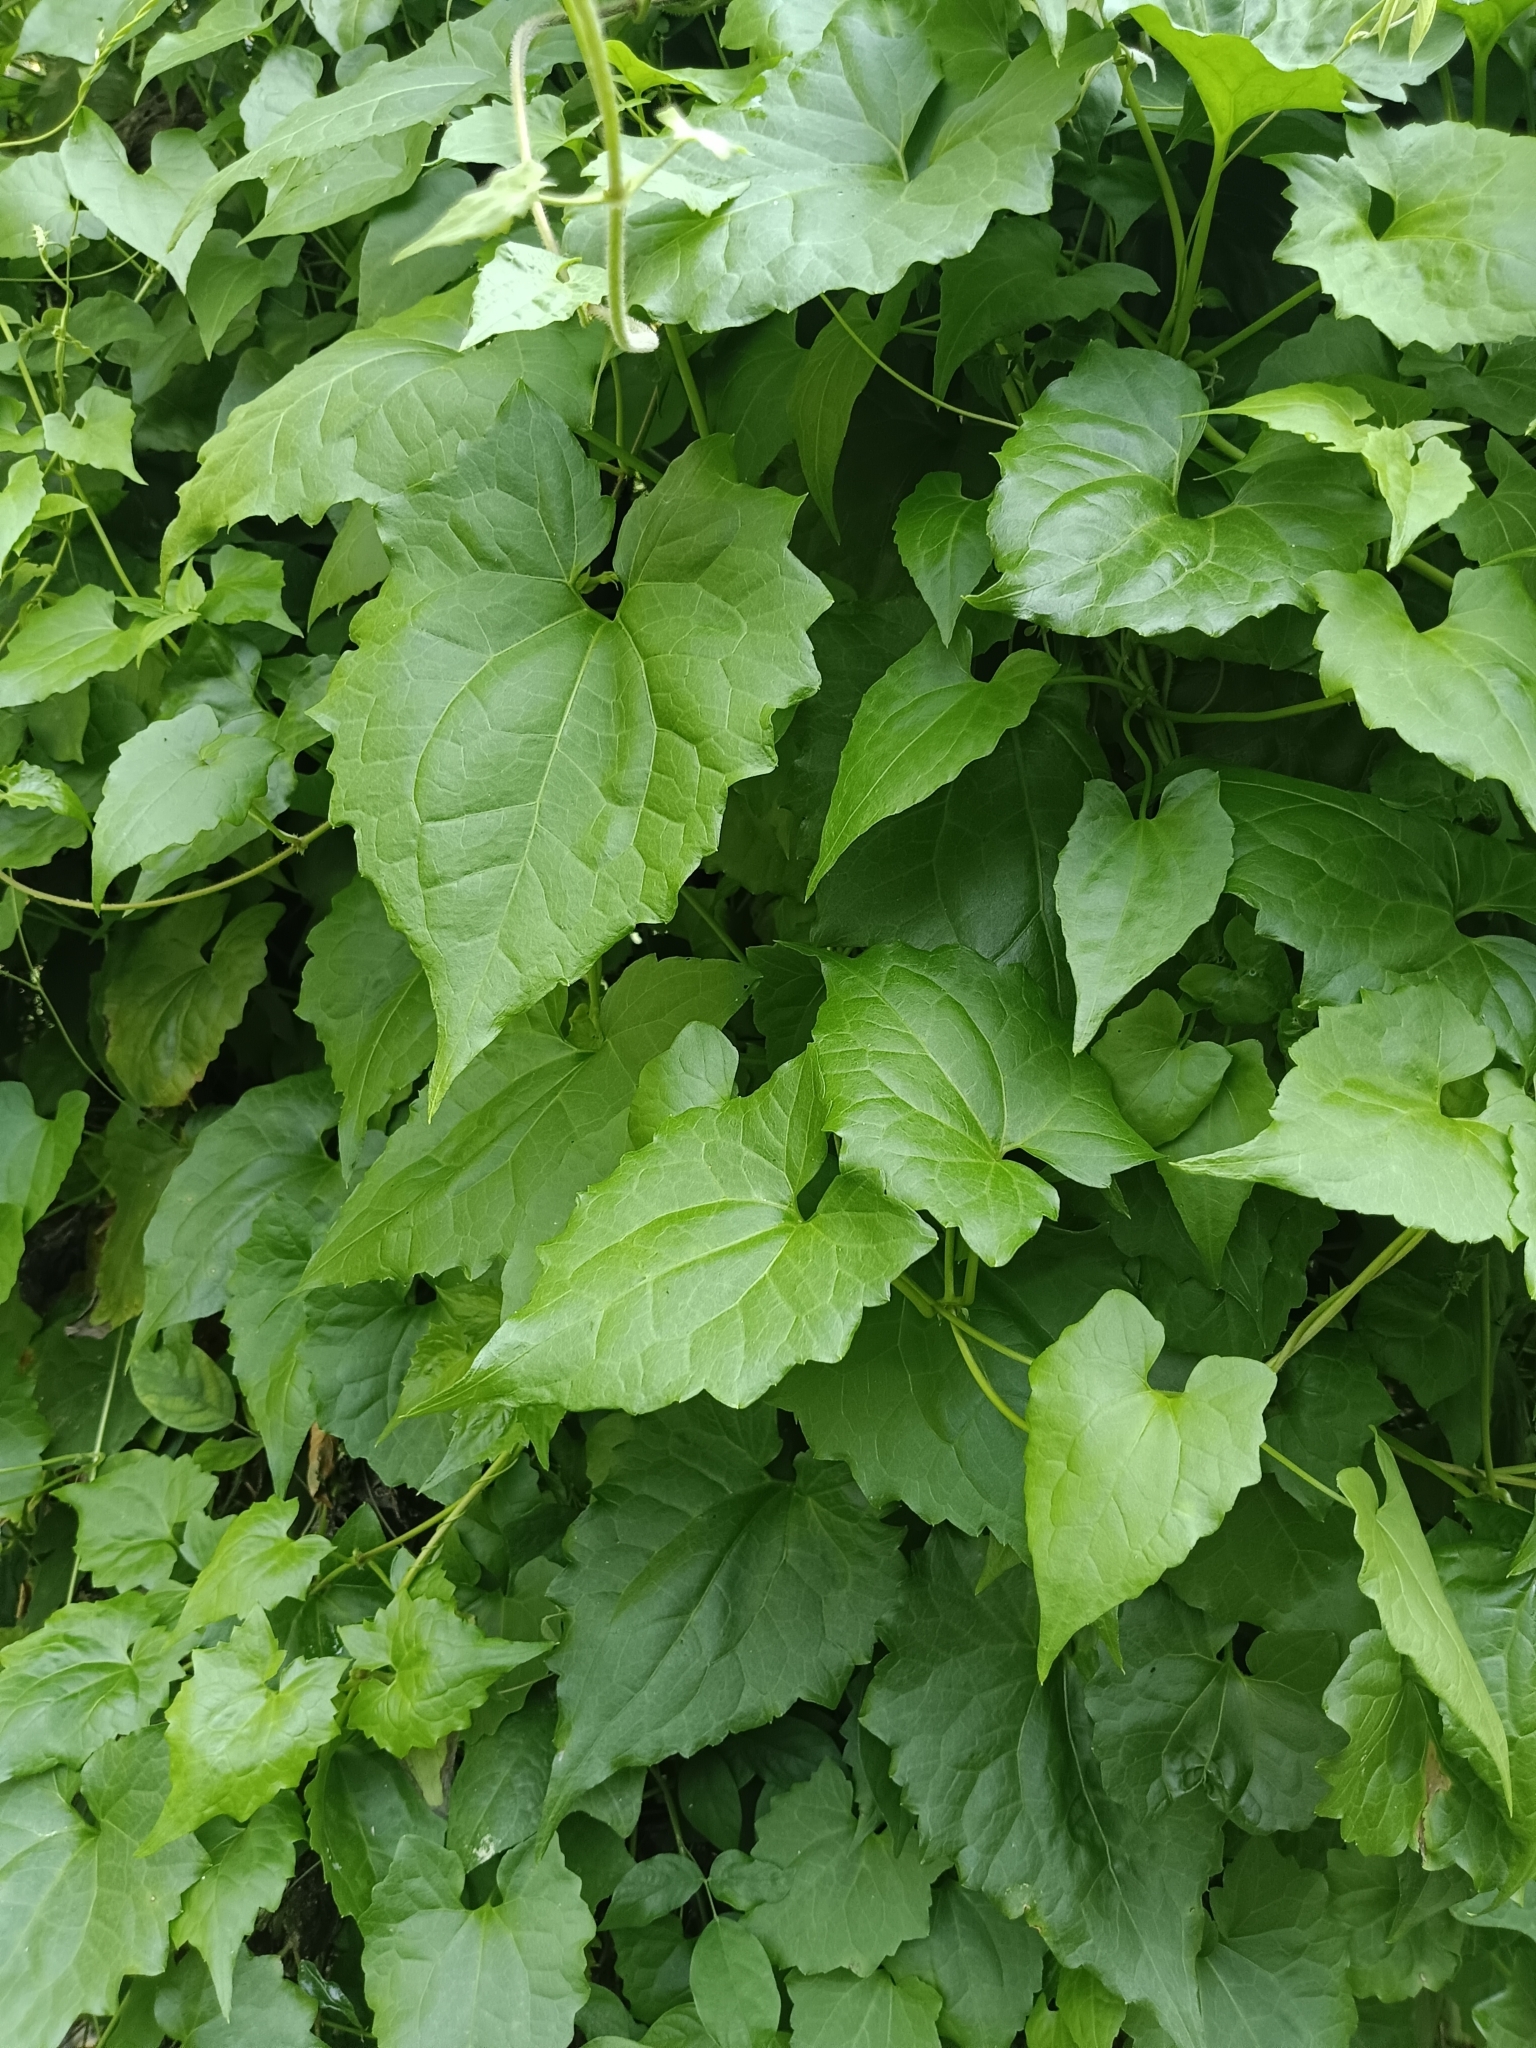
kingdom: Plantae
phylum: Tracheophyta
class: Magnoliopsida
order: Asterales
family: Asteraceae
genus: Mikania
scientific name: Mikania micrantha
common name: Mile-a-minute
